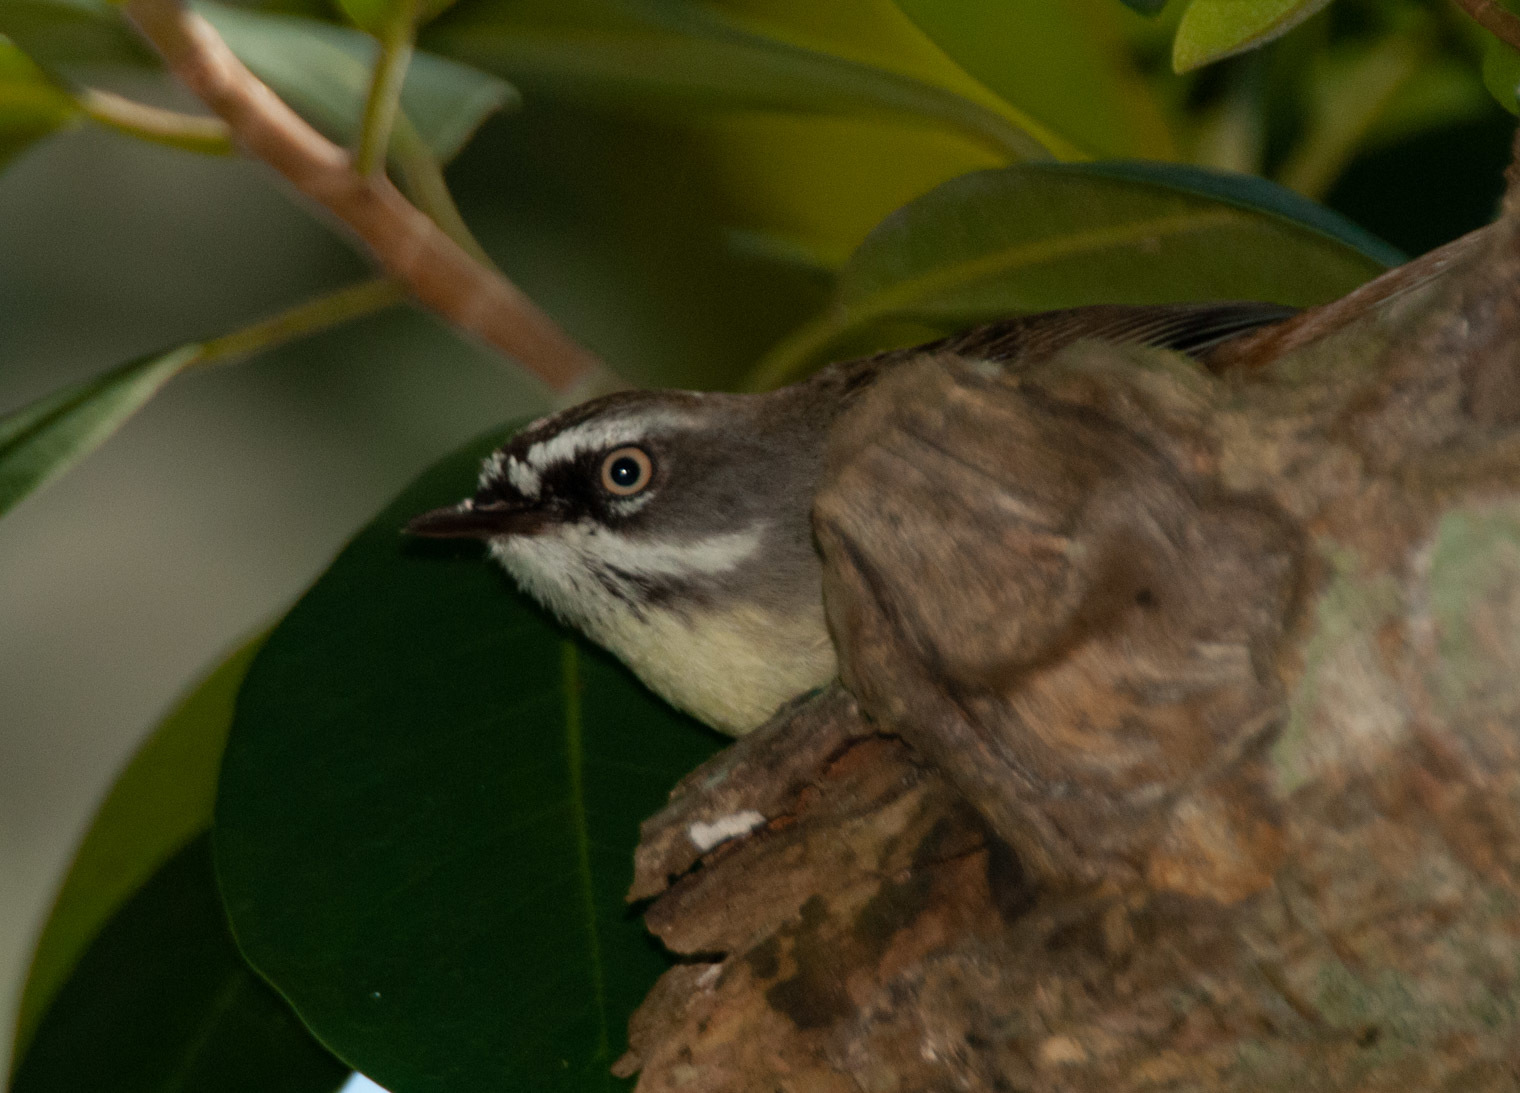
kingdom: Animalia
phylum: Chordata
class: Aves
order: Passeriformes
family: Acanthizidae
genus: Sericornis
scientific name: Sericornis frontalis
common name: White-browed scrubwren
